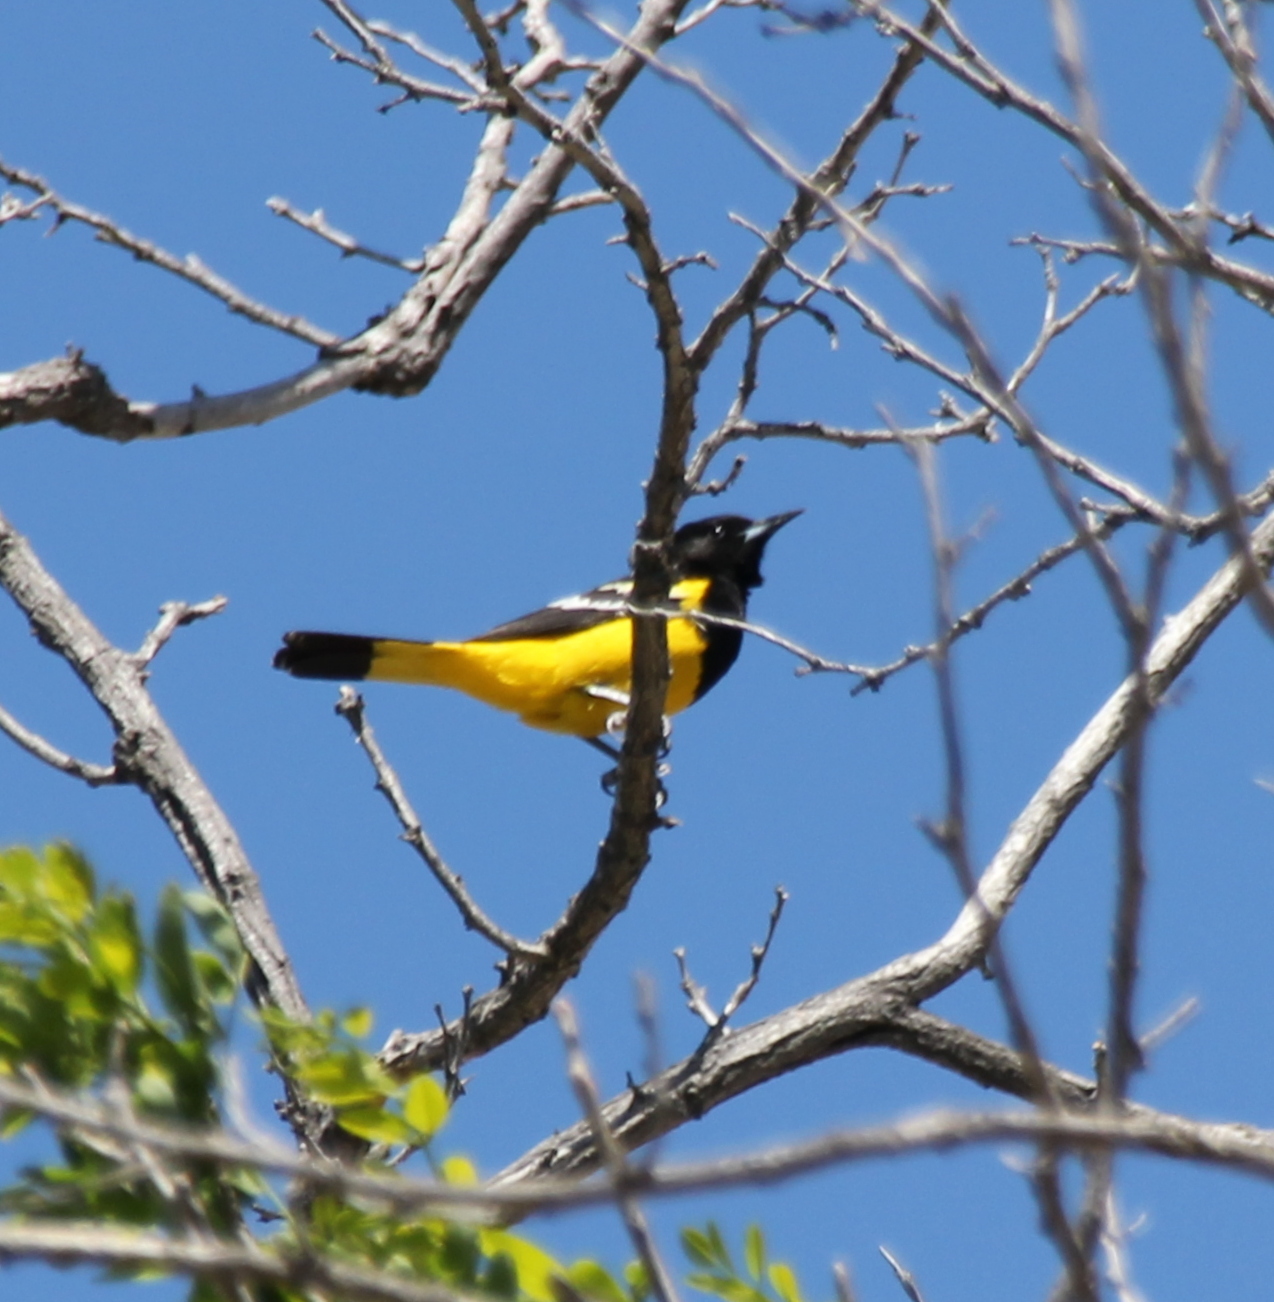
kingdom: Animalia
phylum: Chordata
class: Aves
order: Passeriformes
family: Icteridae
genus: Icterus
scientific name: Icterus parisorum
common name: Scott's oriole
